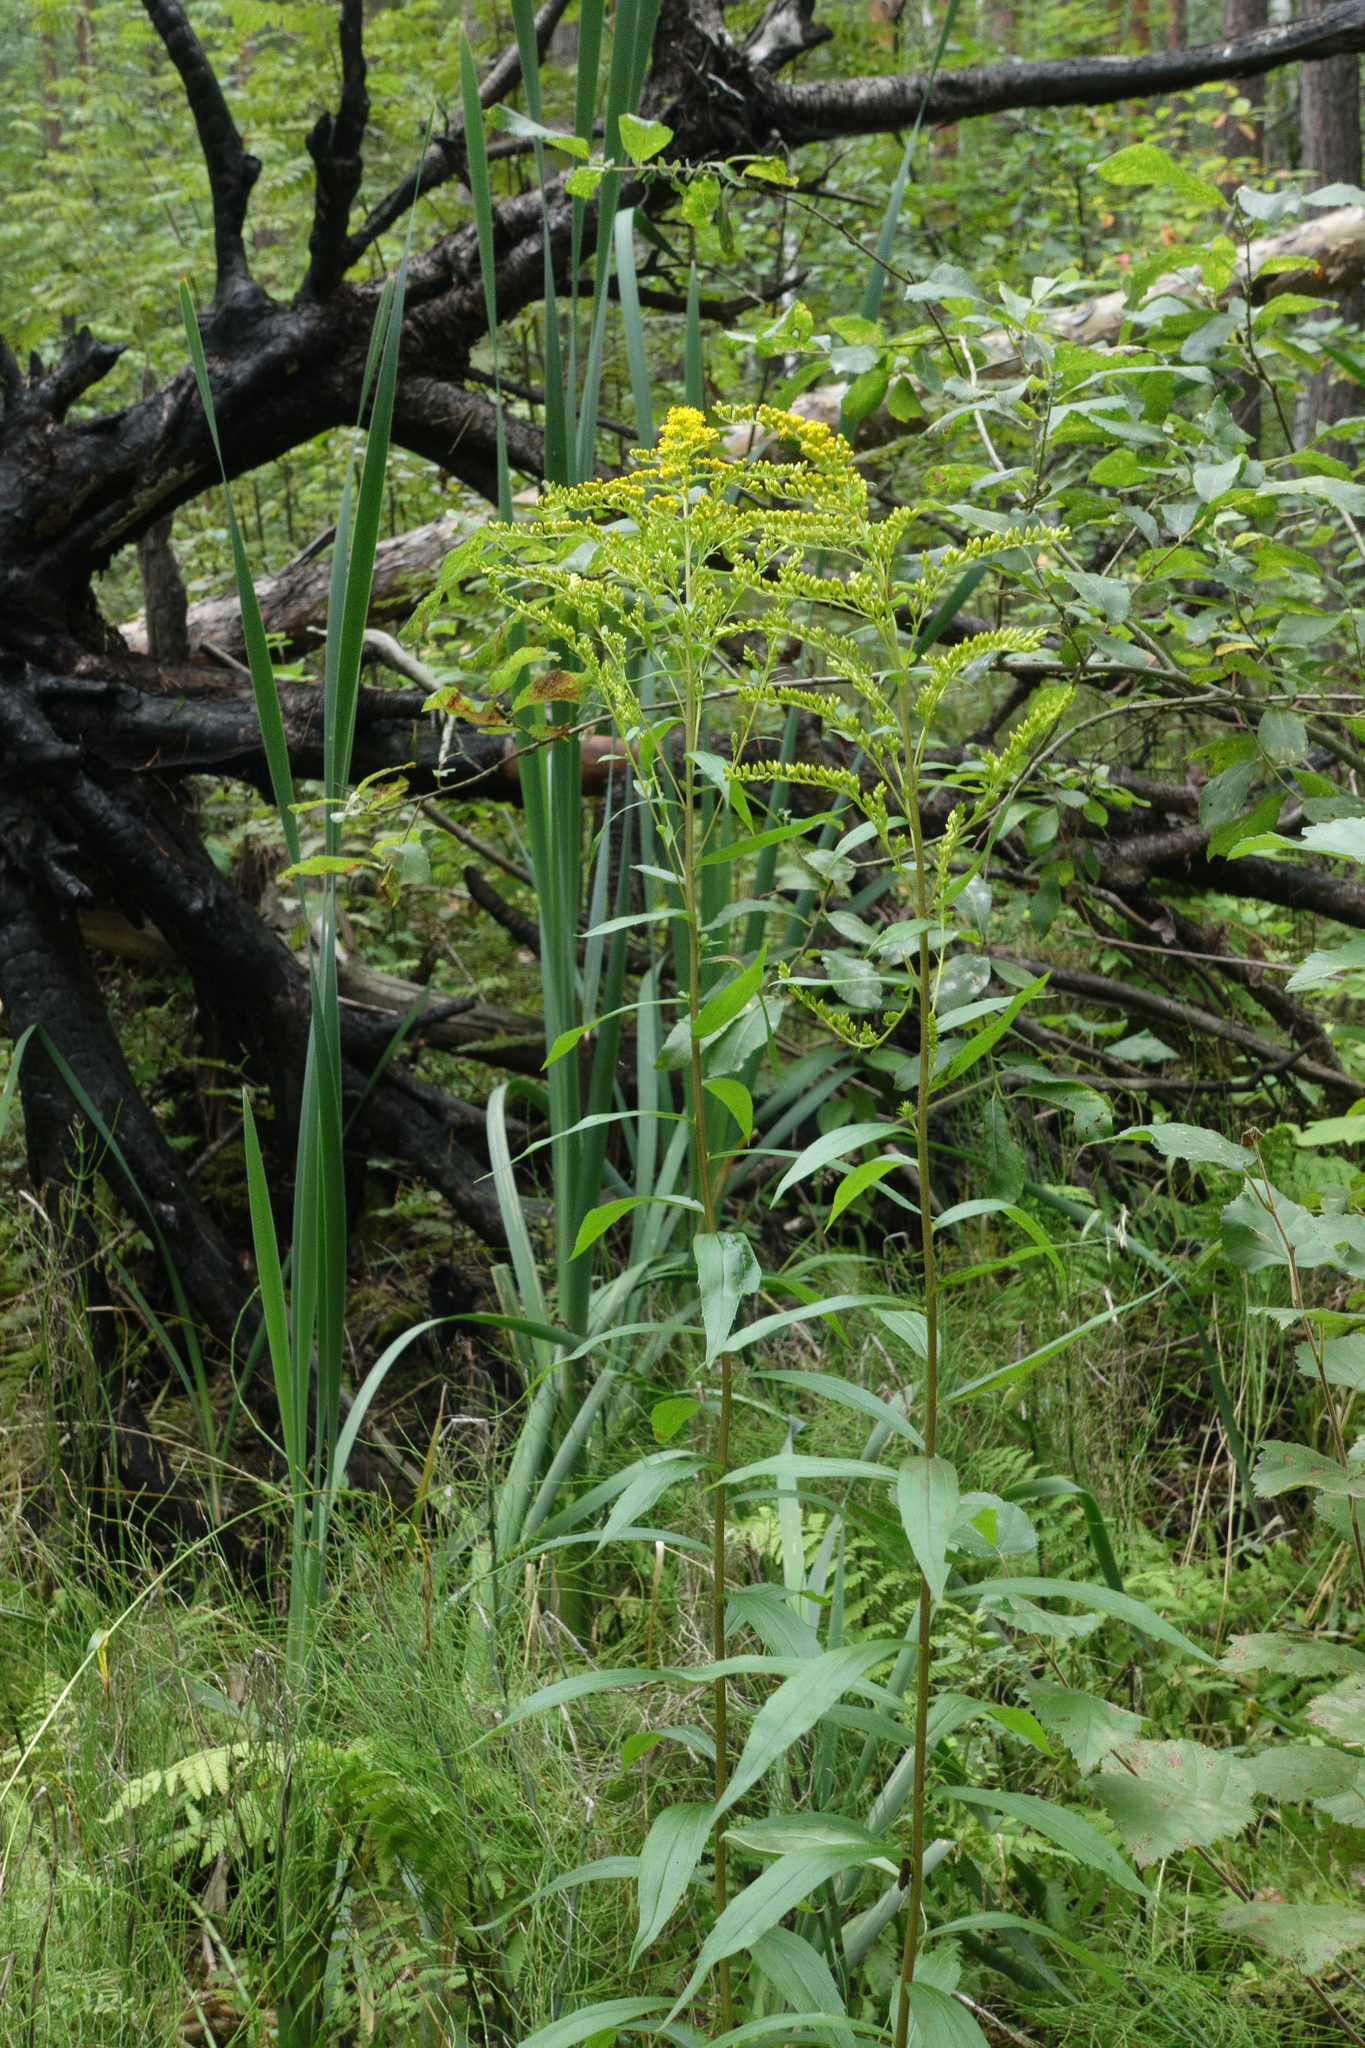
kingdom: Plantae
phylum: Tracheophyta
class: Magnoliopsida
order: Asterales
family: Asteraceae
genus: Solidago
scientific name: Solidago canadensis
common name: Canada goldenrod
